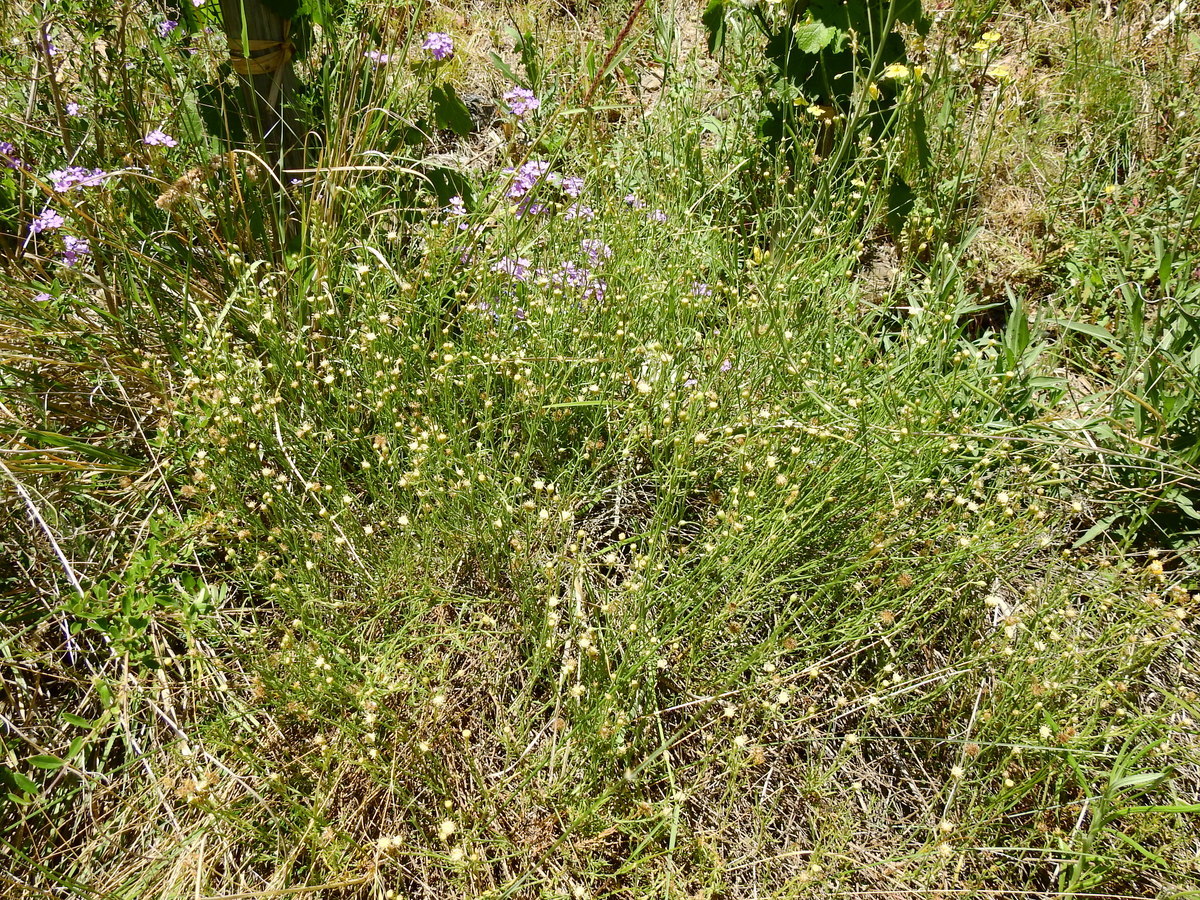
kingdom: Plantae
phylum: Tracheophyta
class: Magnoliopsida
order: Asterales
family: Asteraceae
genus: Baccharis
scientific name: Baccharis darwinii
